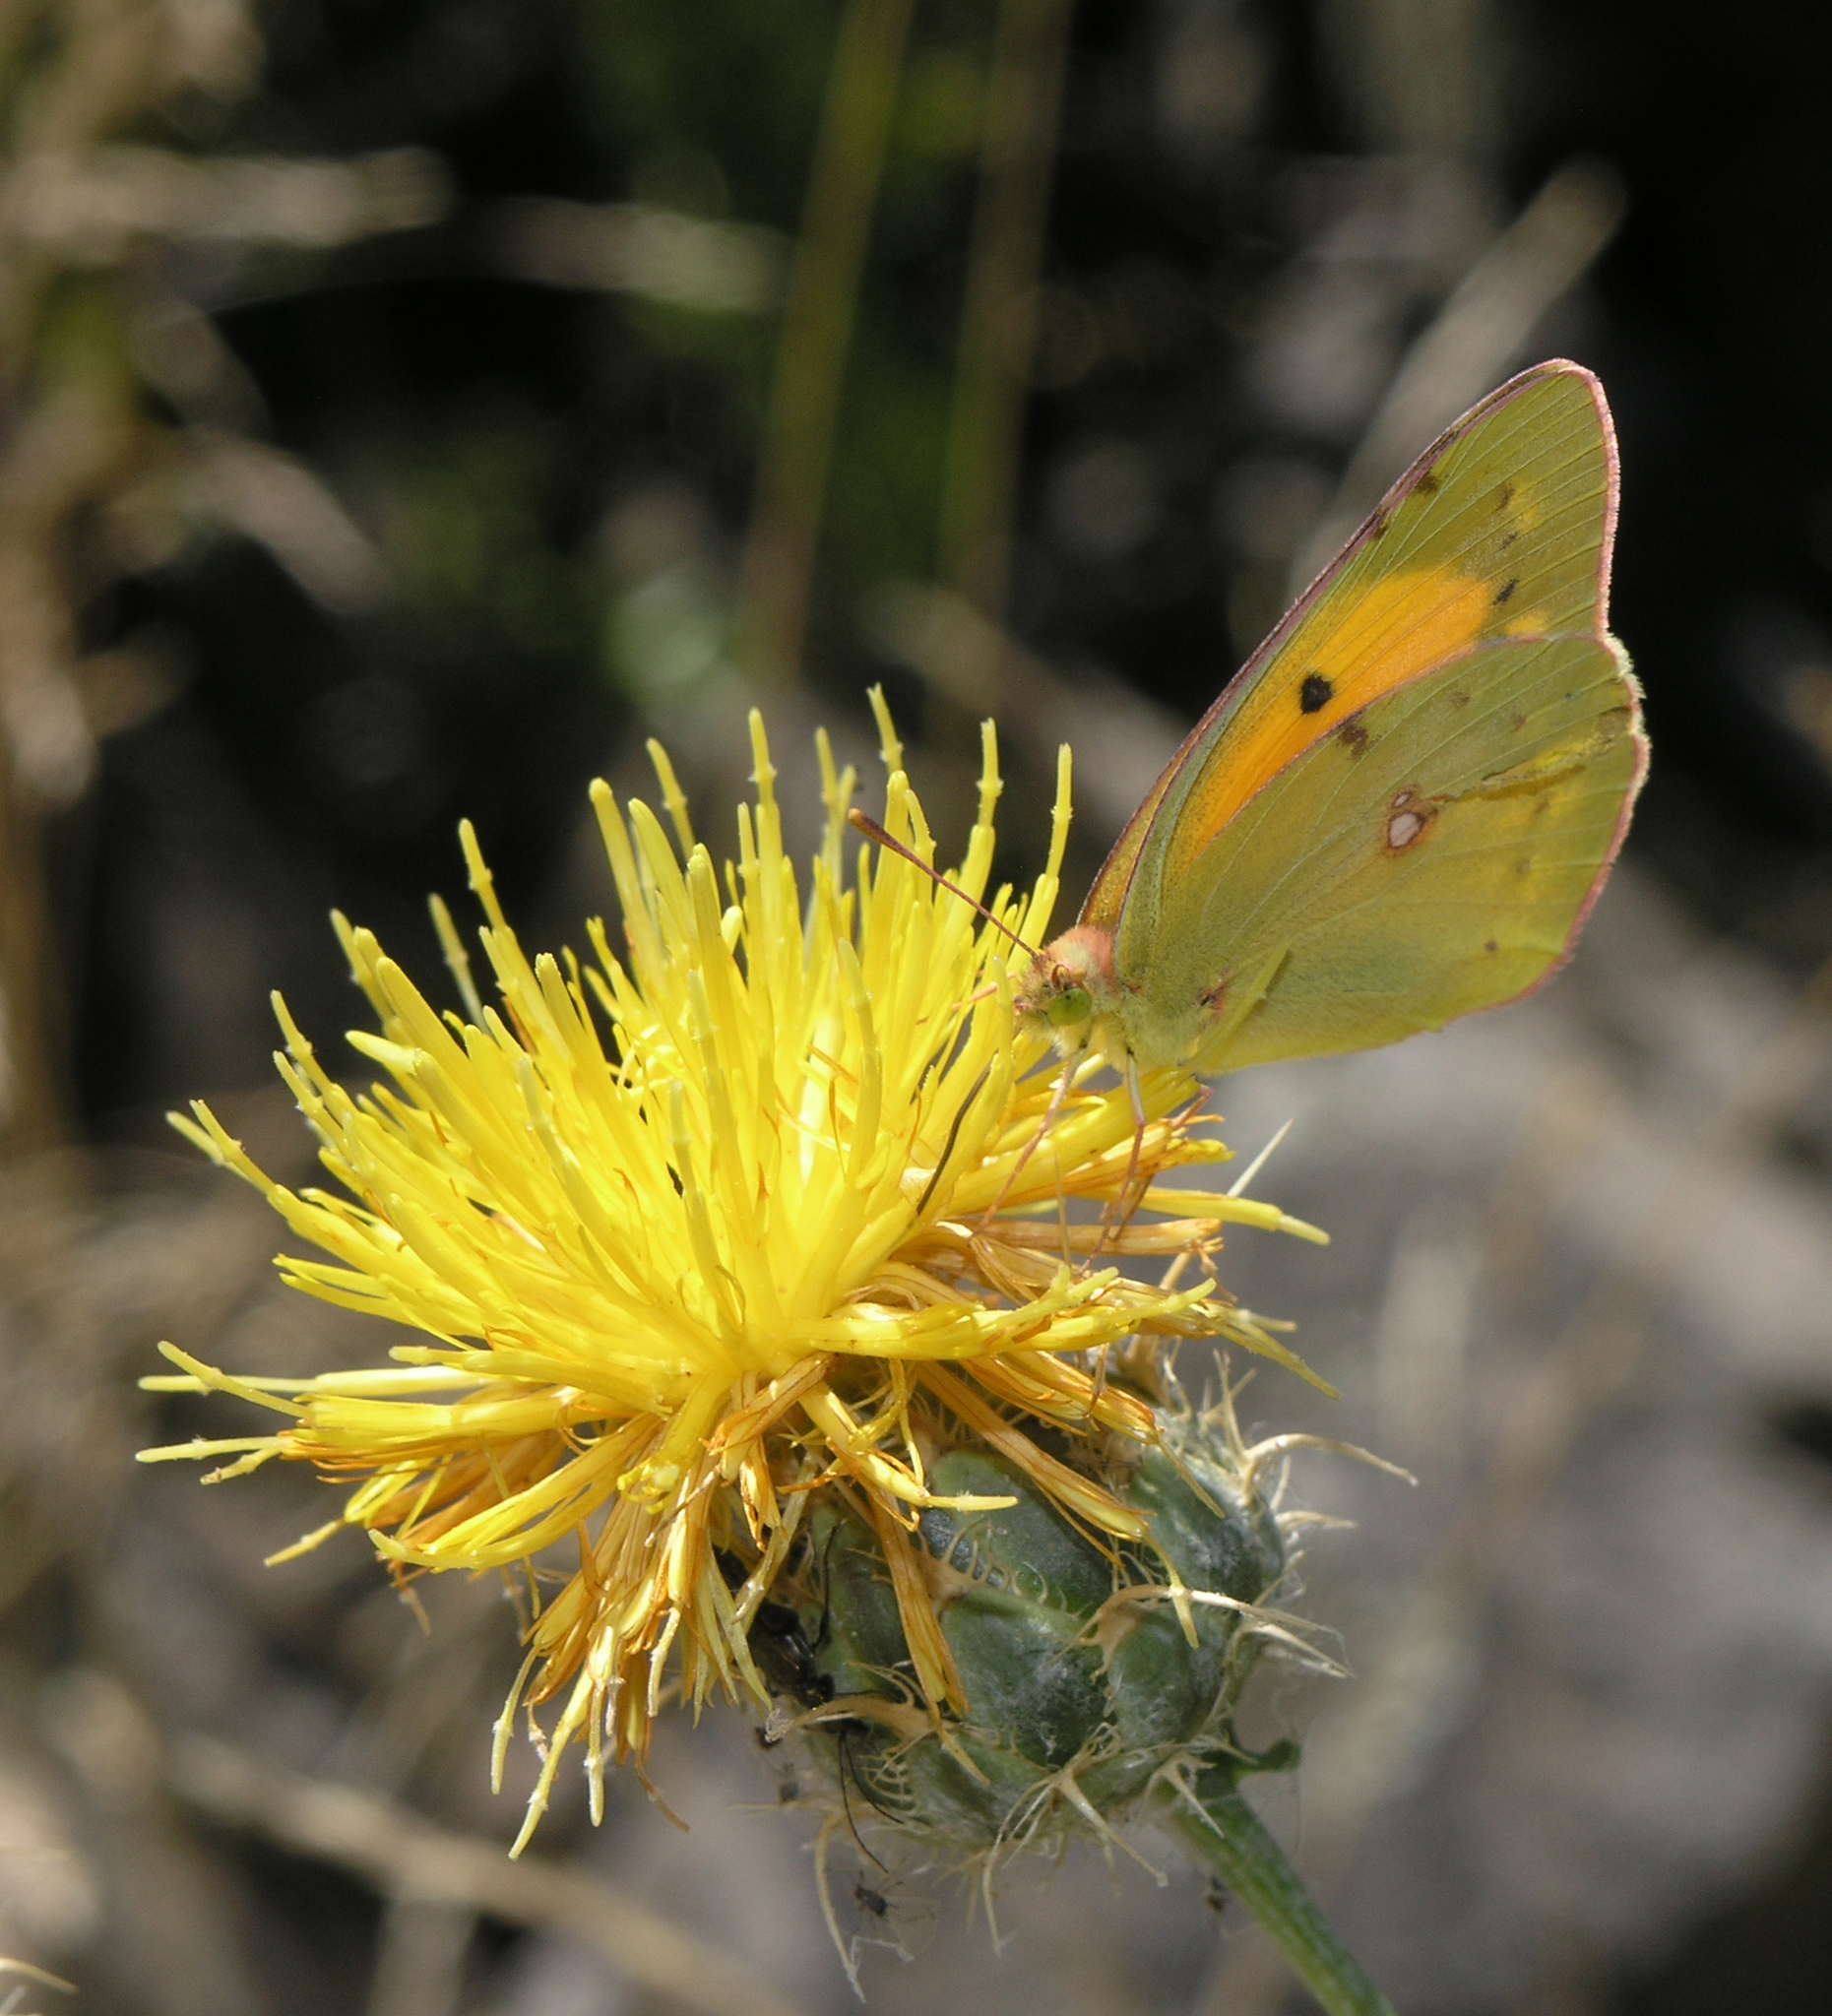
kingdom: Animalia
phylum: Arthropoda
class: Insecta
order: Lepidoptera
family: Pieridae
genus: Colias
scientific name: Colias croceus
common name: Clouded yellow
